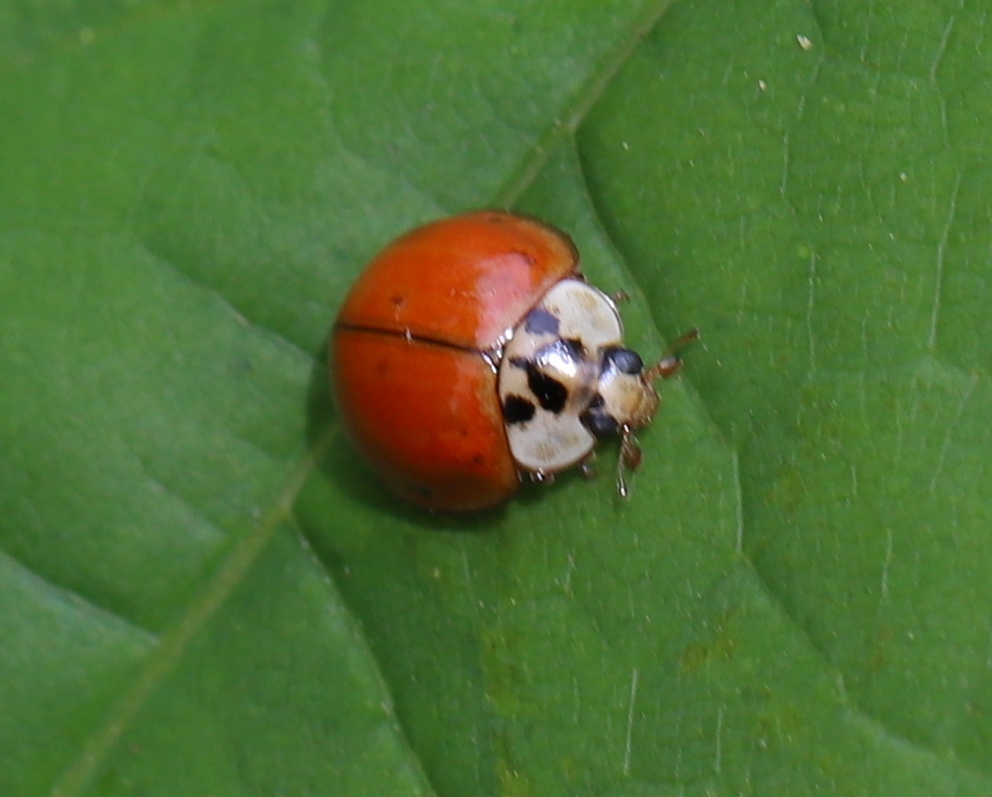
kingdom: Animalia
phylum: Arthropoda
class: Insecta
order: Coleoptera
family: Coccinellidae
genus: Harmonia
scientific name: Harmonia axyridis
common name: Harlequin ladybird
